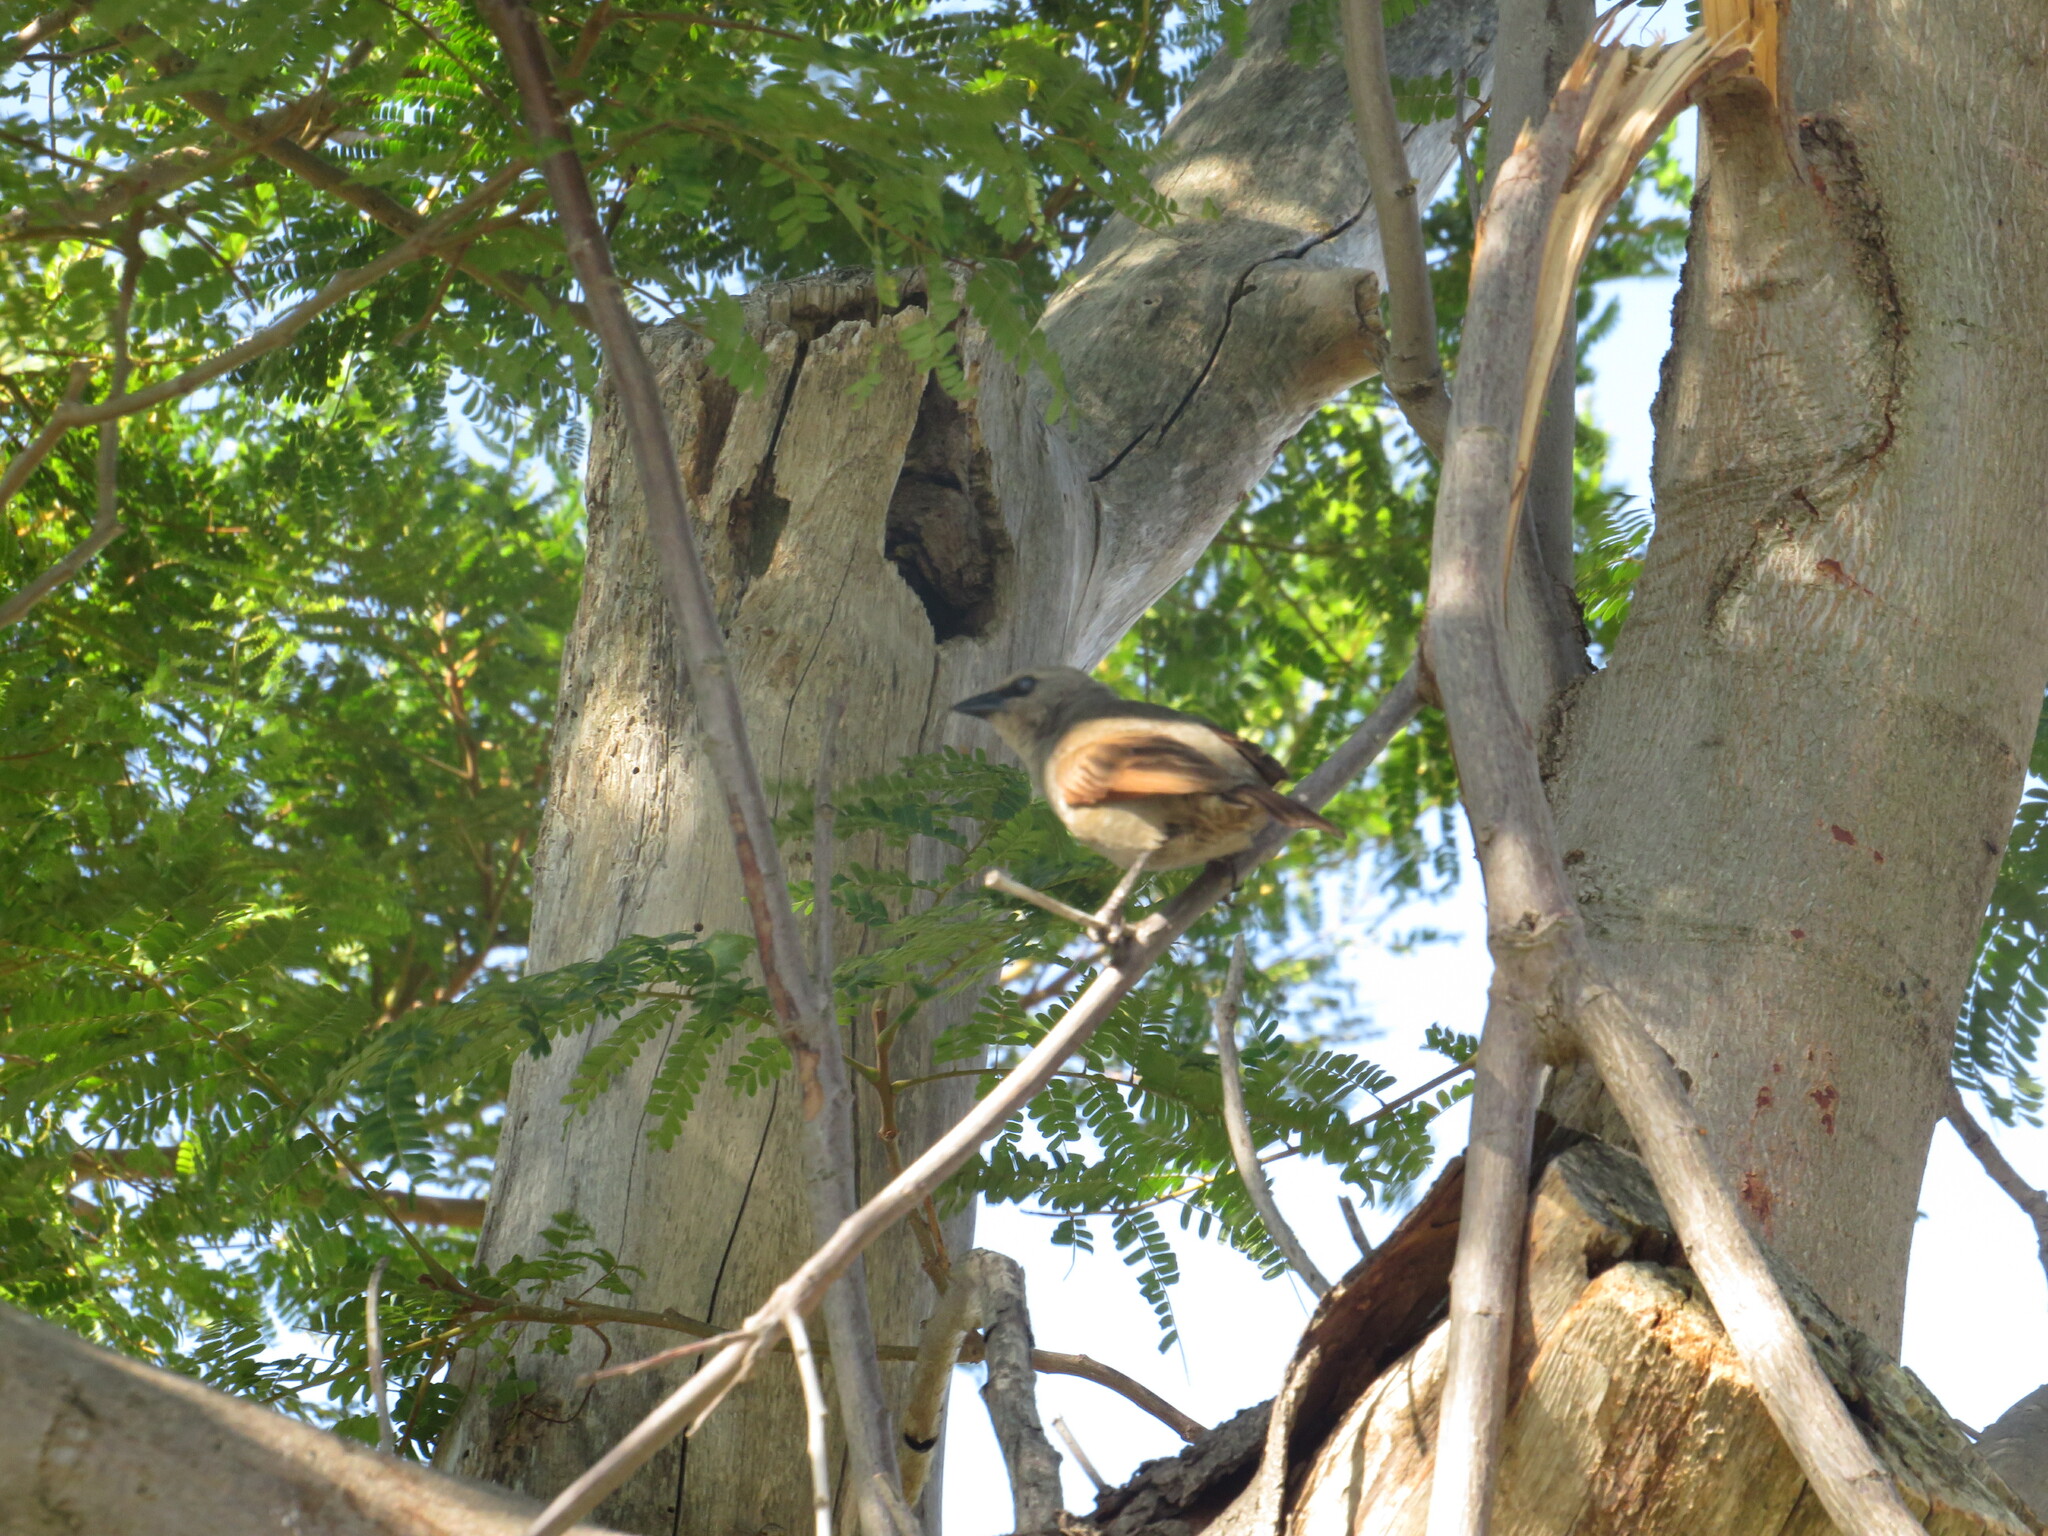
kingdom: Animalia
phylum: Chordata
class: Aves
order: Passeriformes
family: Icteridae
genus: Agelaioides
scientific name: Agelaioides badius
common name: Baywing
